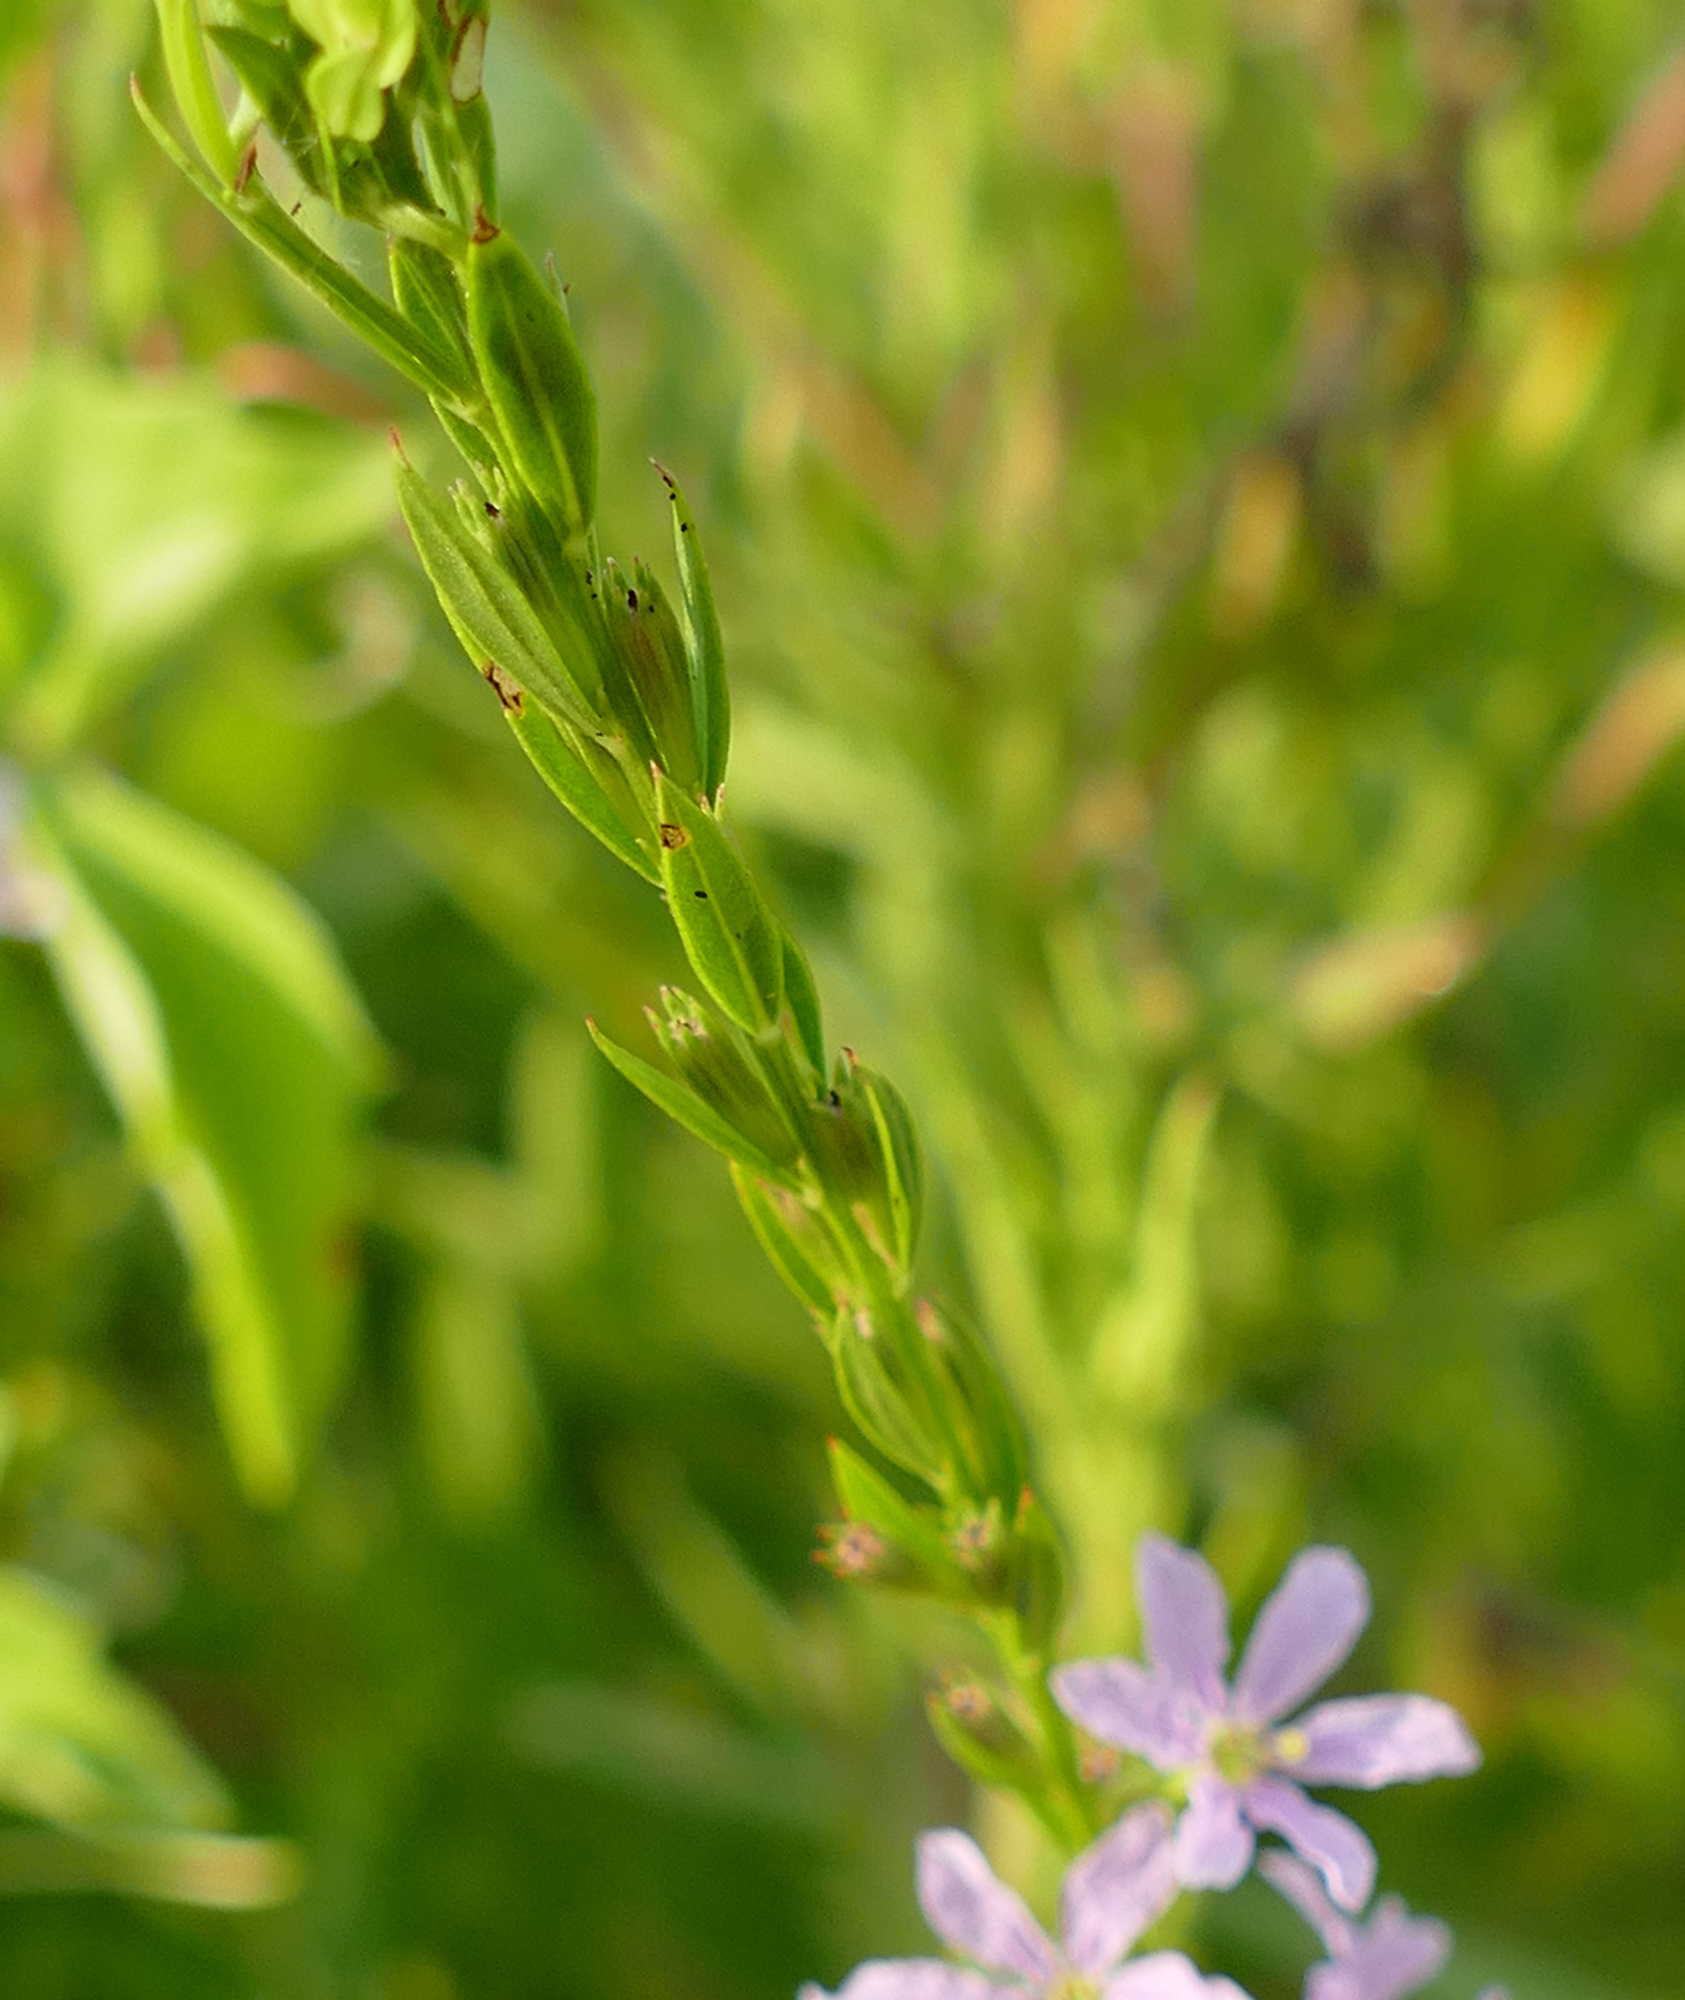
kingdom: Plantae
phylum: Tracheophyta
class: Magnoliopsida
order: Myrtales
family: Lythraceae
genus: Lythrum
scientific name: Lythrum alatum
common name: Winged loosestrife
